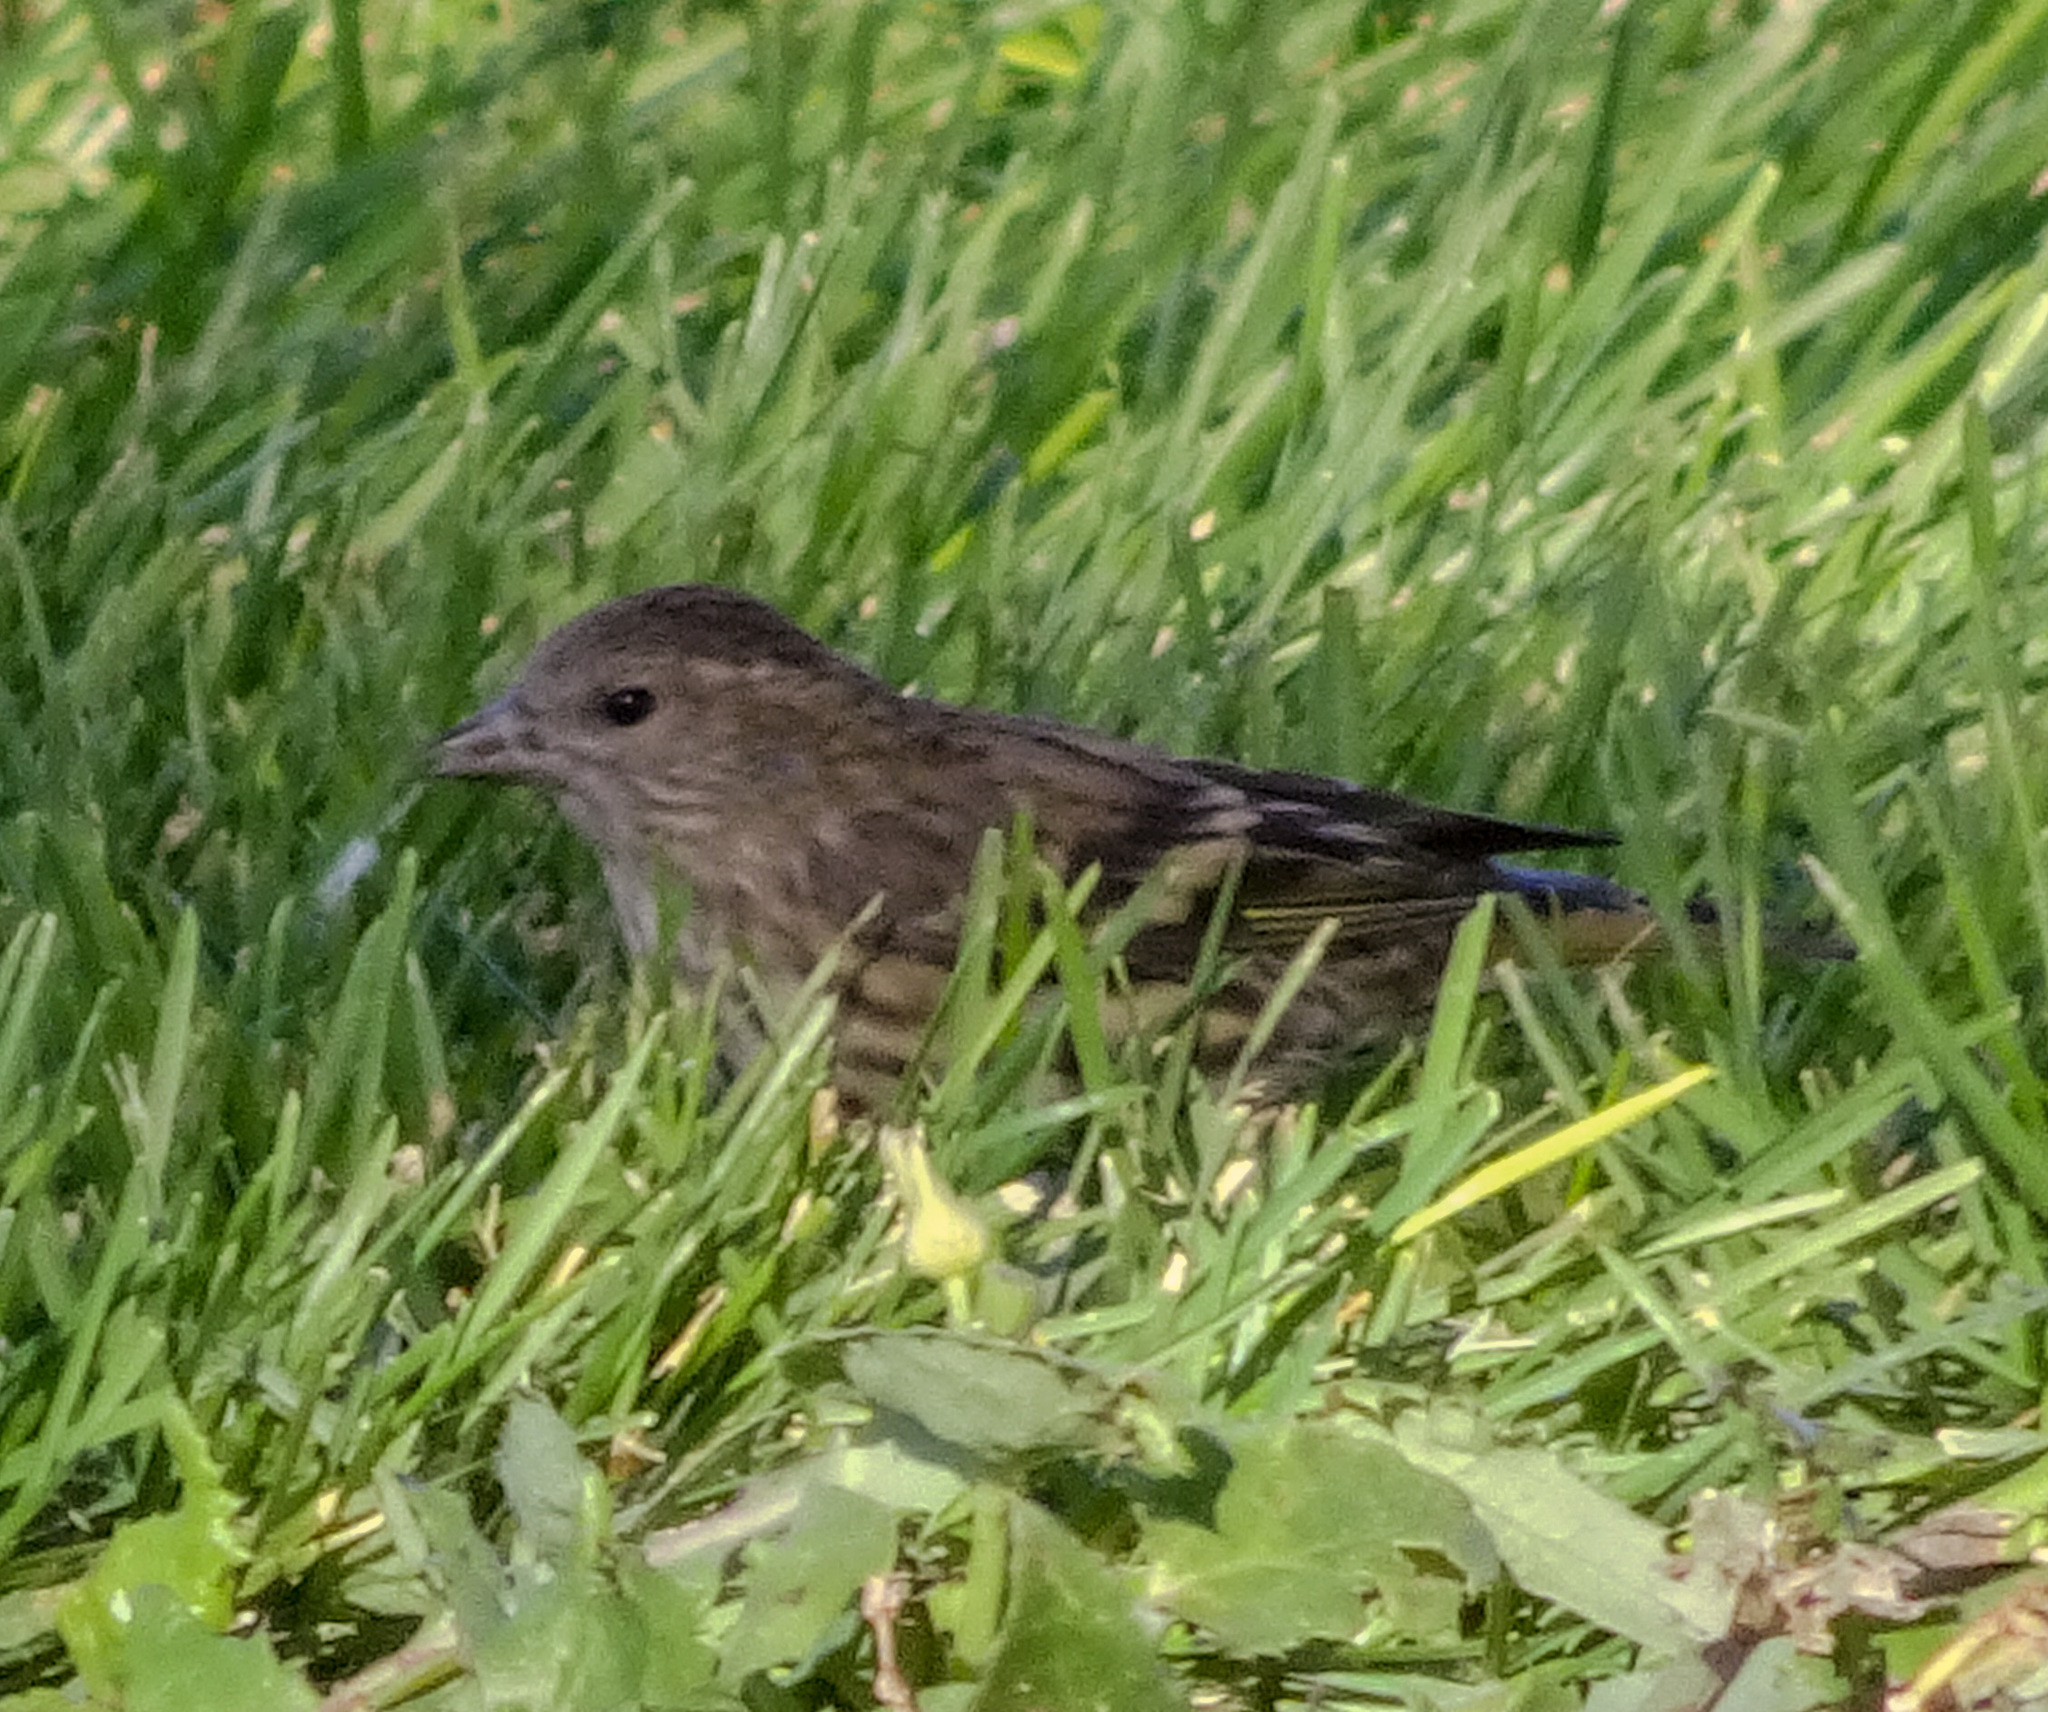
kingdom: Animalia
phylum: Chordata
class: Aves
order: Passeriformes
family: Fringillidae
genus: Spinus
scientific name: Spinus pinus
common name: Pine siskin
